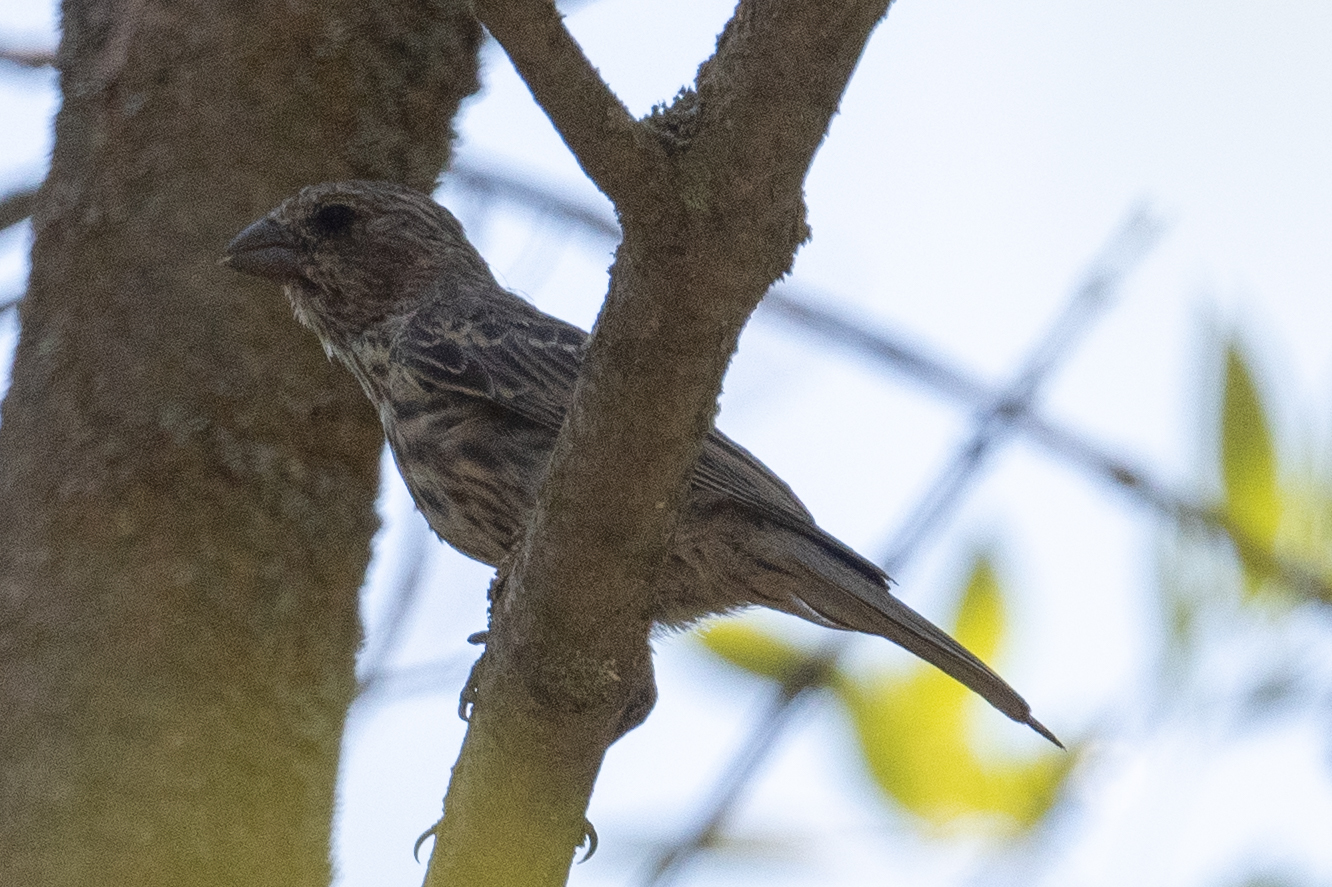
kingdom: Animalia
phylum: Chordata
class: Aves
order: Passeriformes
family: Fringillidae
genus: Haemorhous
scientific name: Haemorhous mexicanus
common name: House finch
